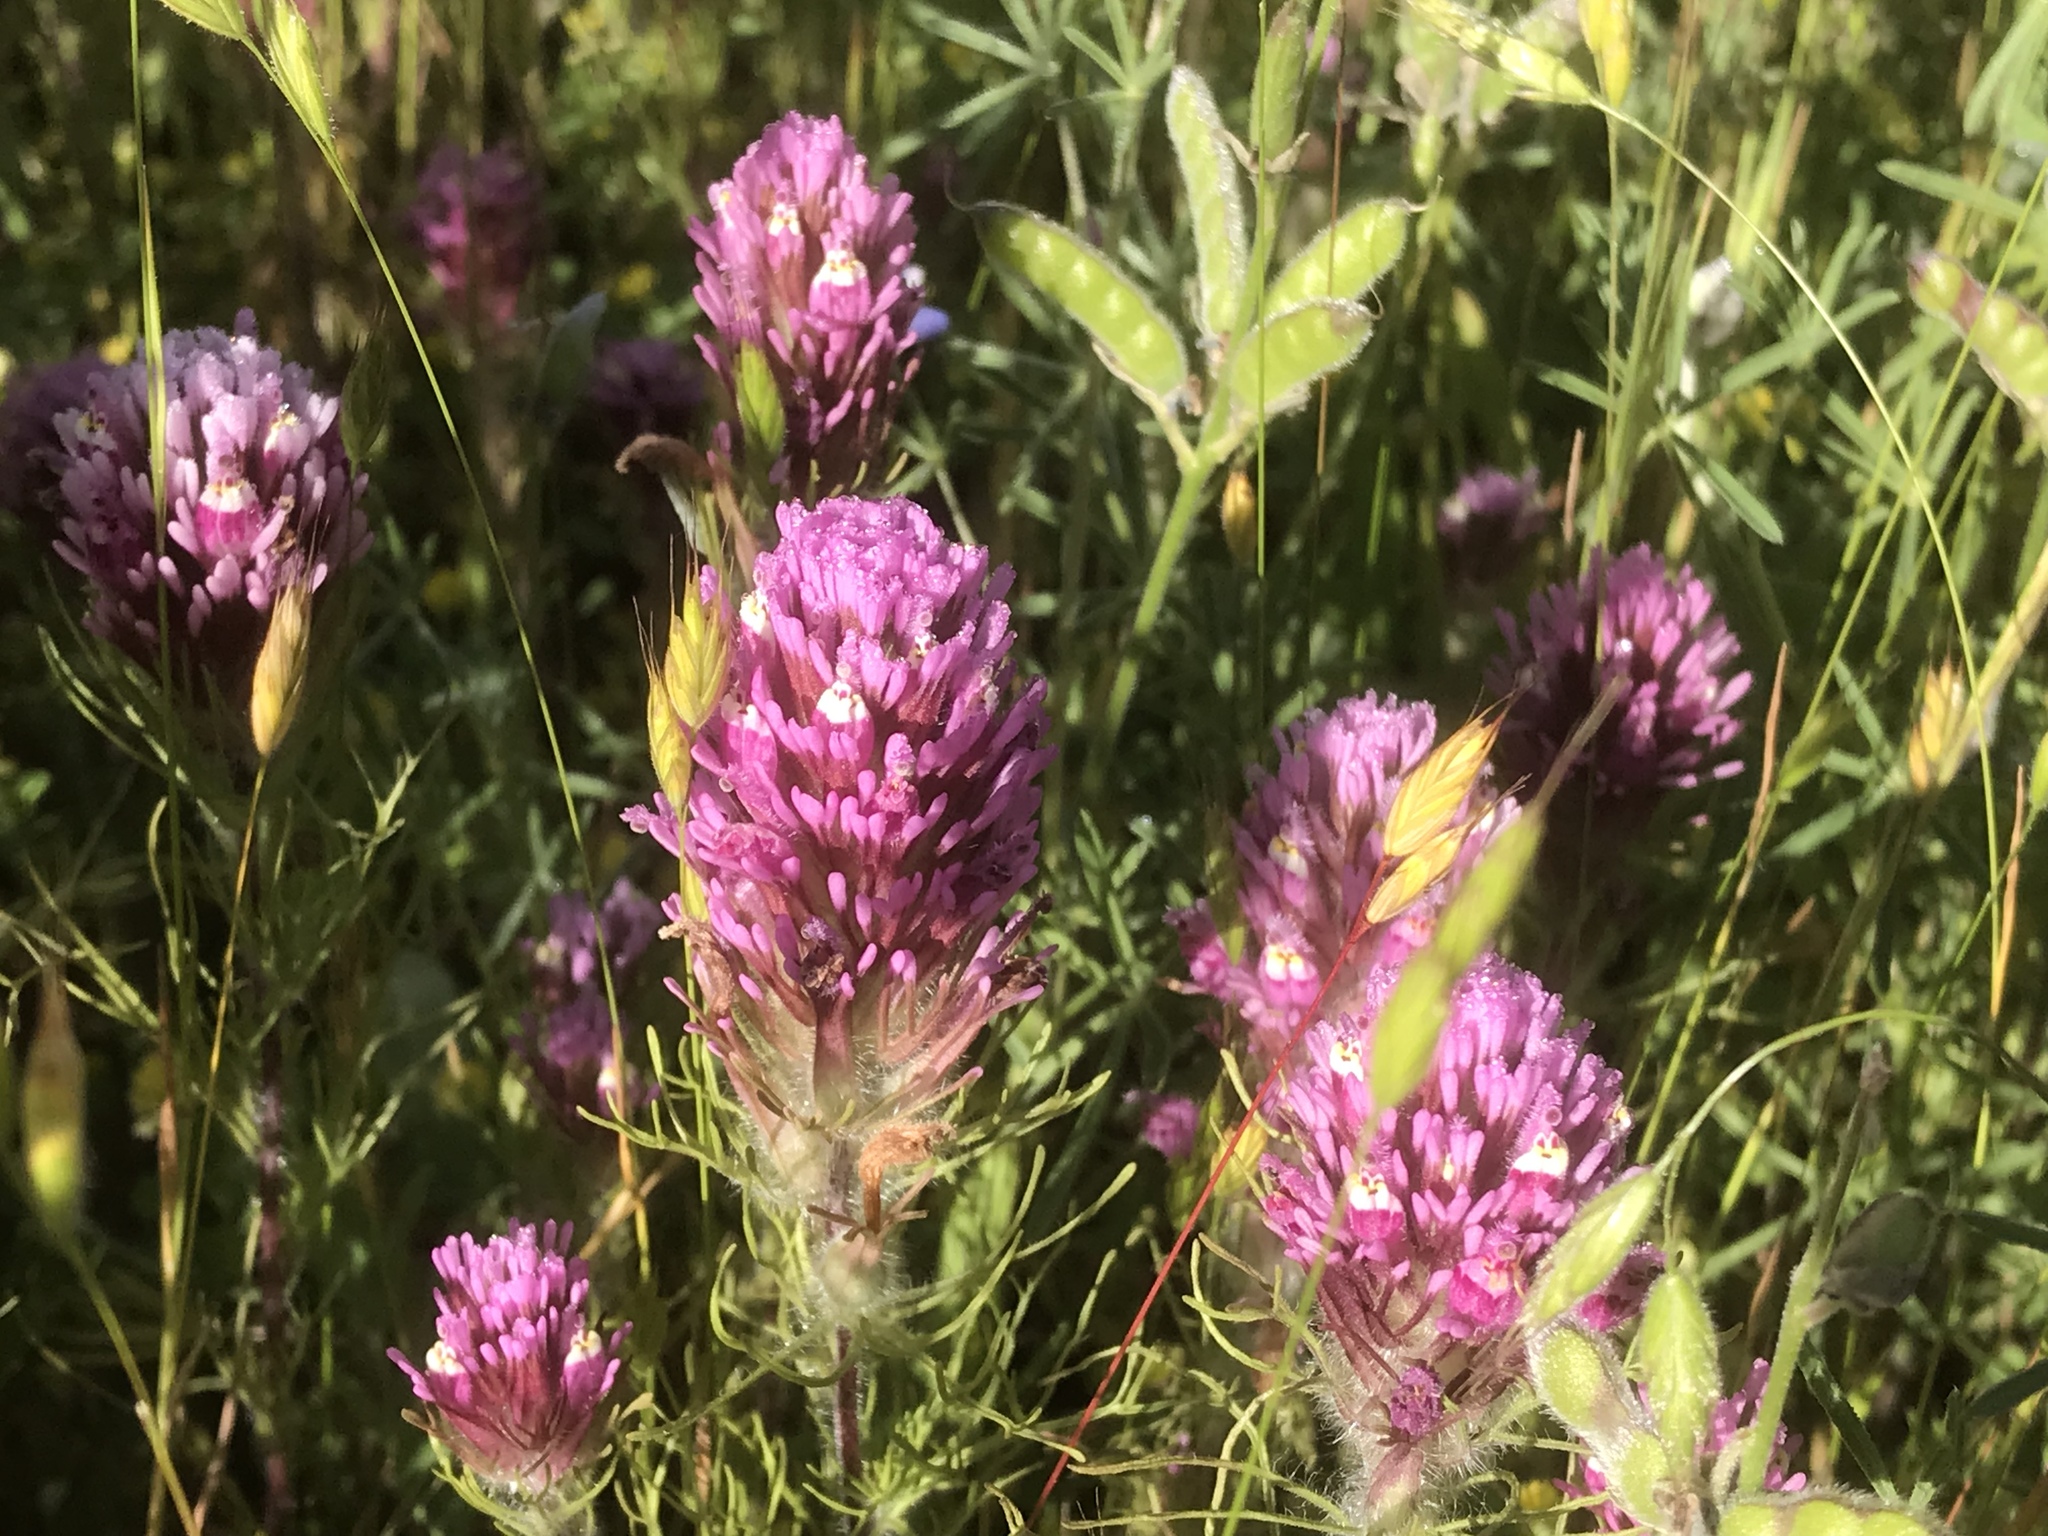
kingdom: Plantae
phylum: Tracheophyta
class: Magnoliopsida
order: Lamiales
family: Orobanchaceae
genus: Castilleja
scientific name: Castilleja exserta
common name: Purple owl-clover
